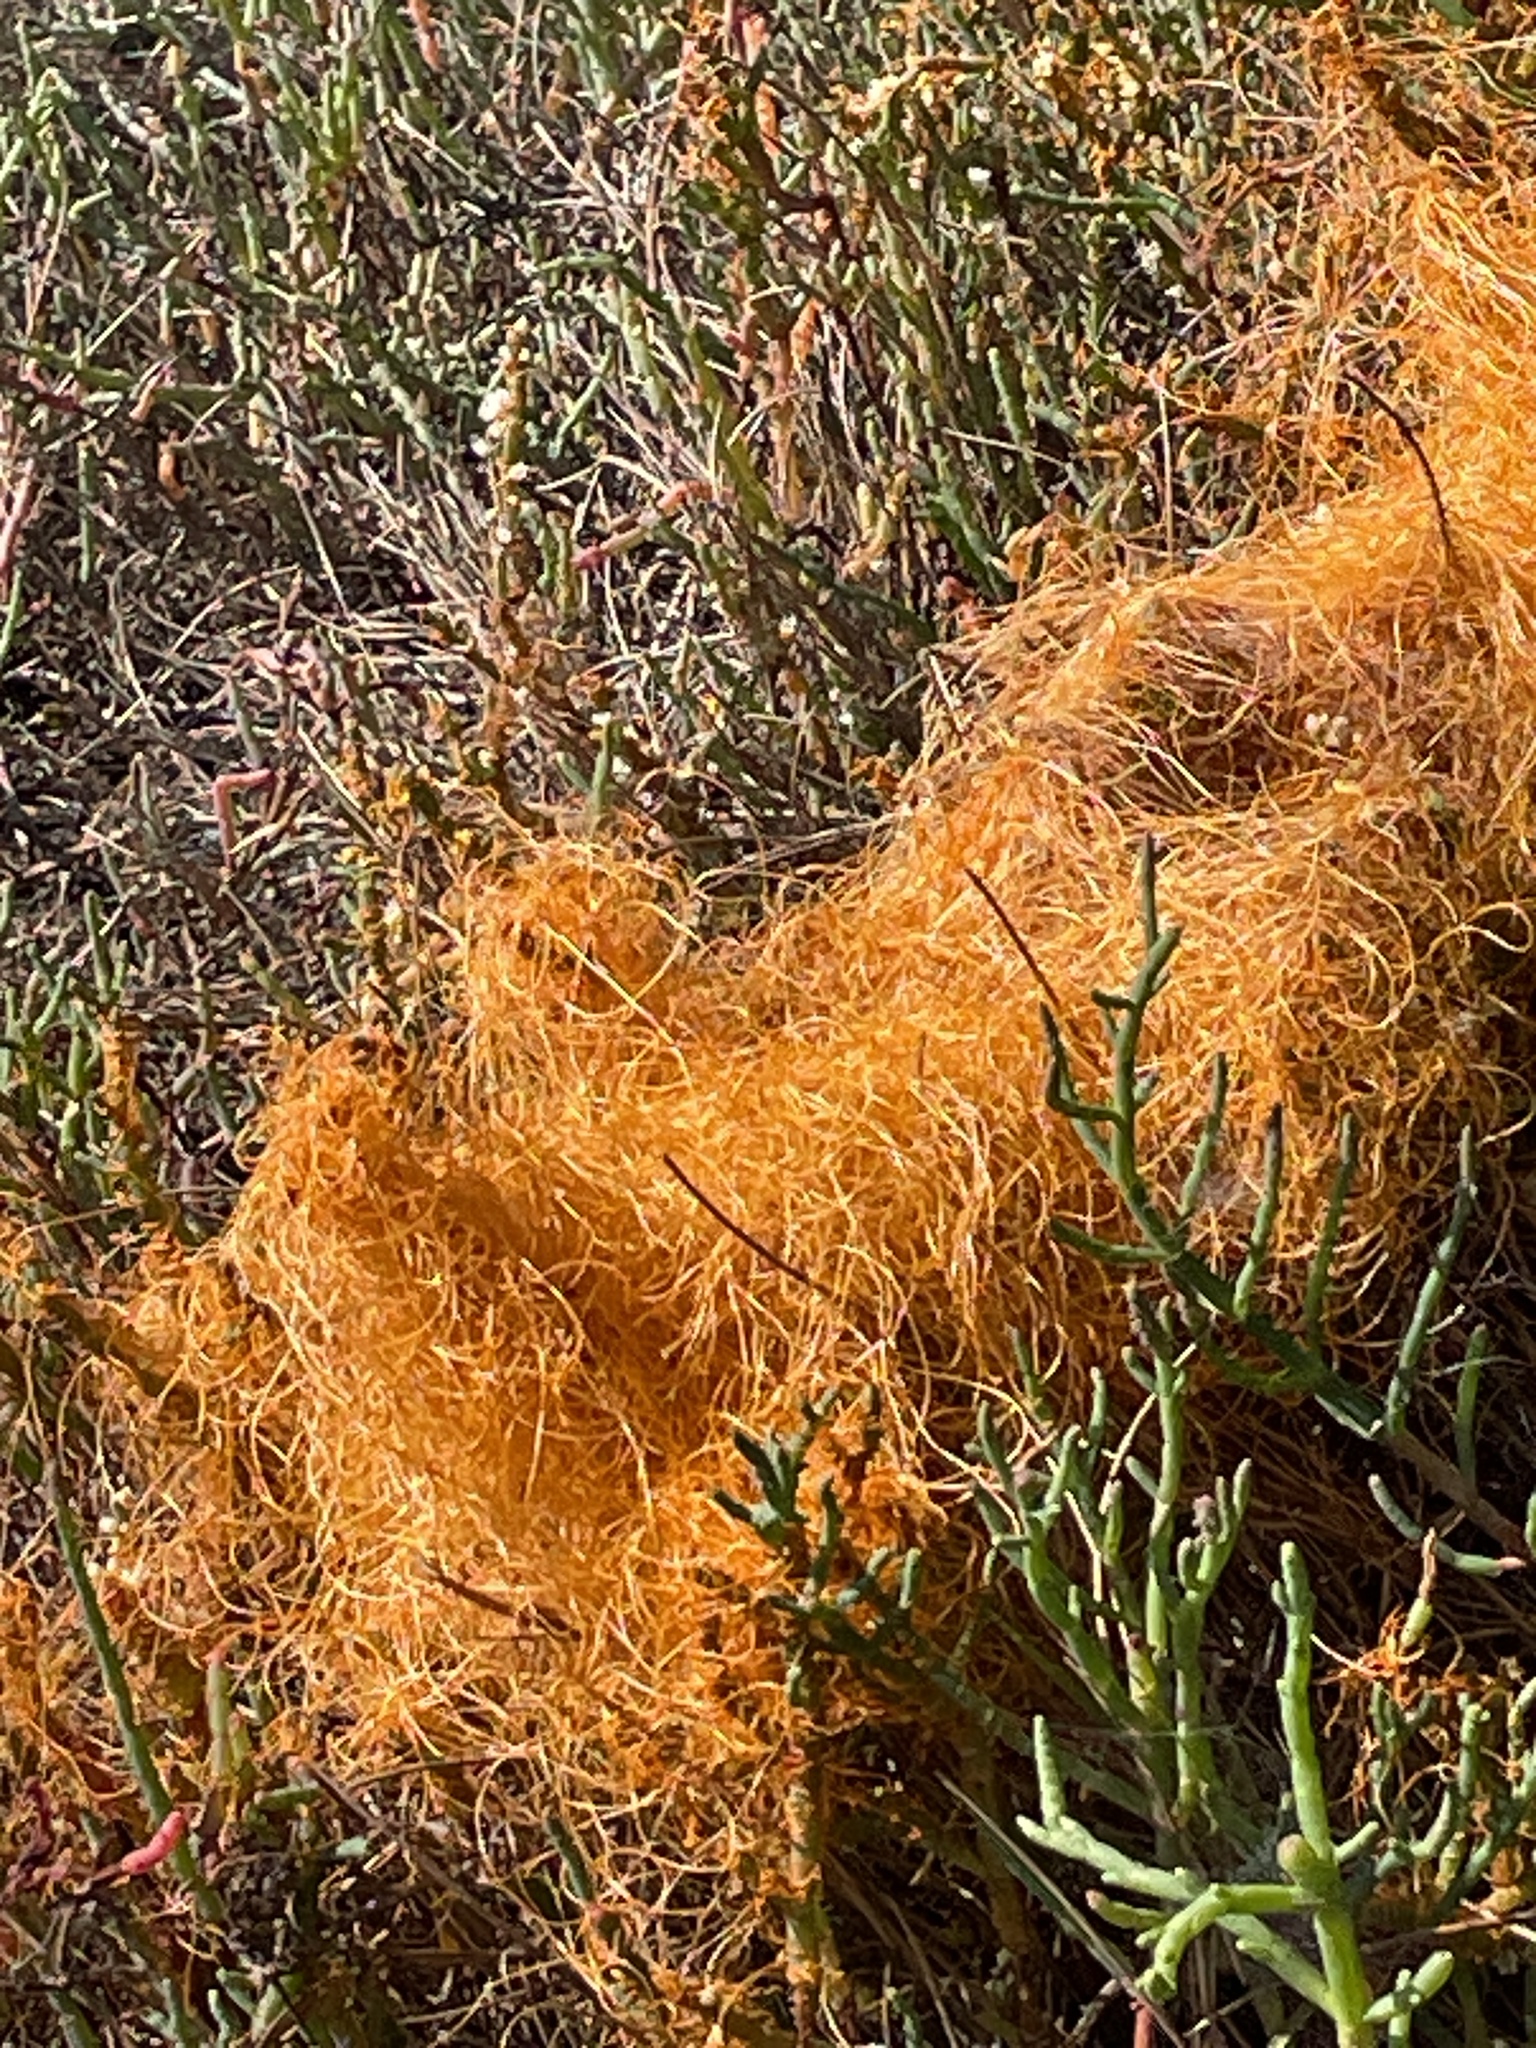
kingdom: Plantae
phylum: Tracheophyta
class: Magnoliopsida
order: Solanales
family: Convolvulaceae
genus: Cuscuta
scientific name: Cuscuta pacifica
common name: Large saltmarsh dodder
